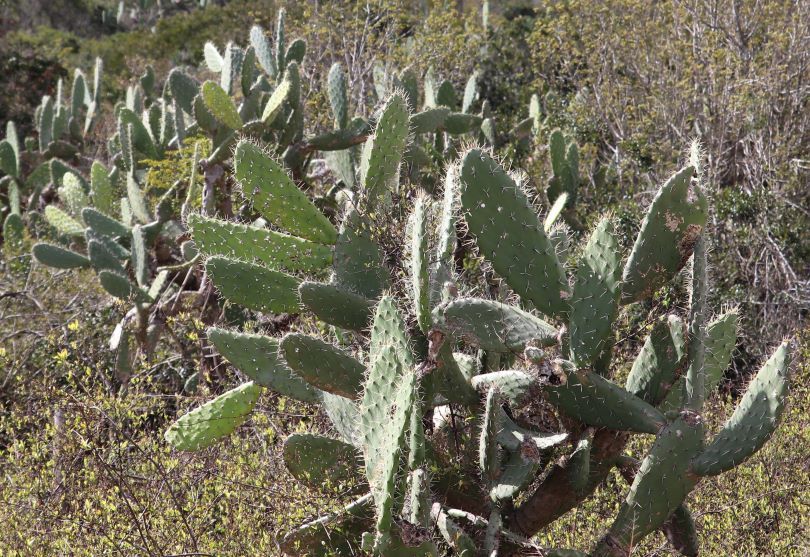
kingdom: Plantae
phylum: Tracheophyta
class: Magnoliopsida
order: Caryophyllales
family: Cactaceae
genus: Opuntia
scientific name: Opuntia ficus-indica
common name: Barbary fig
